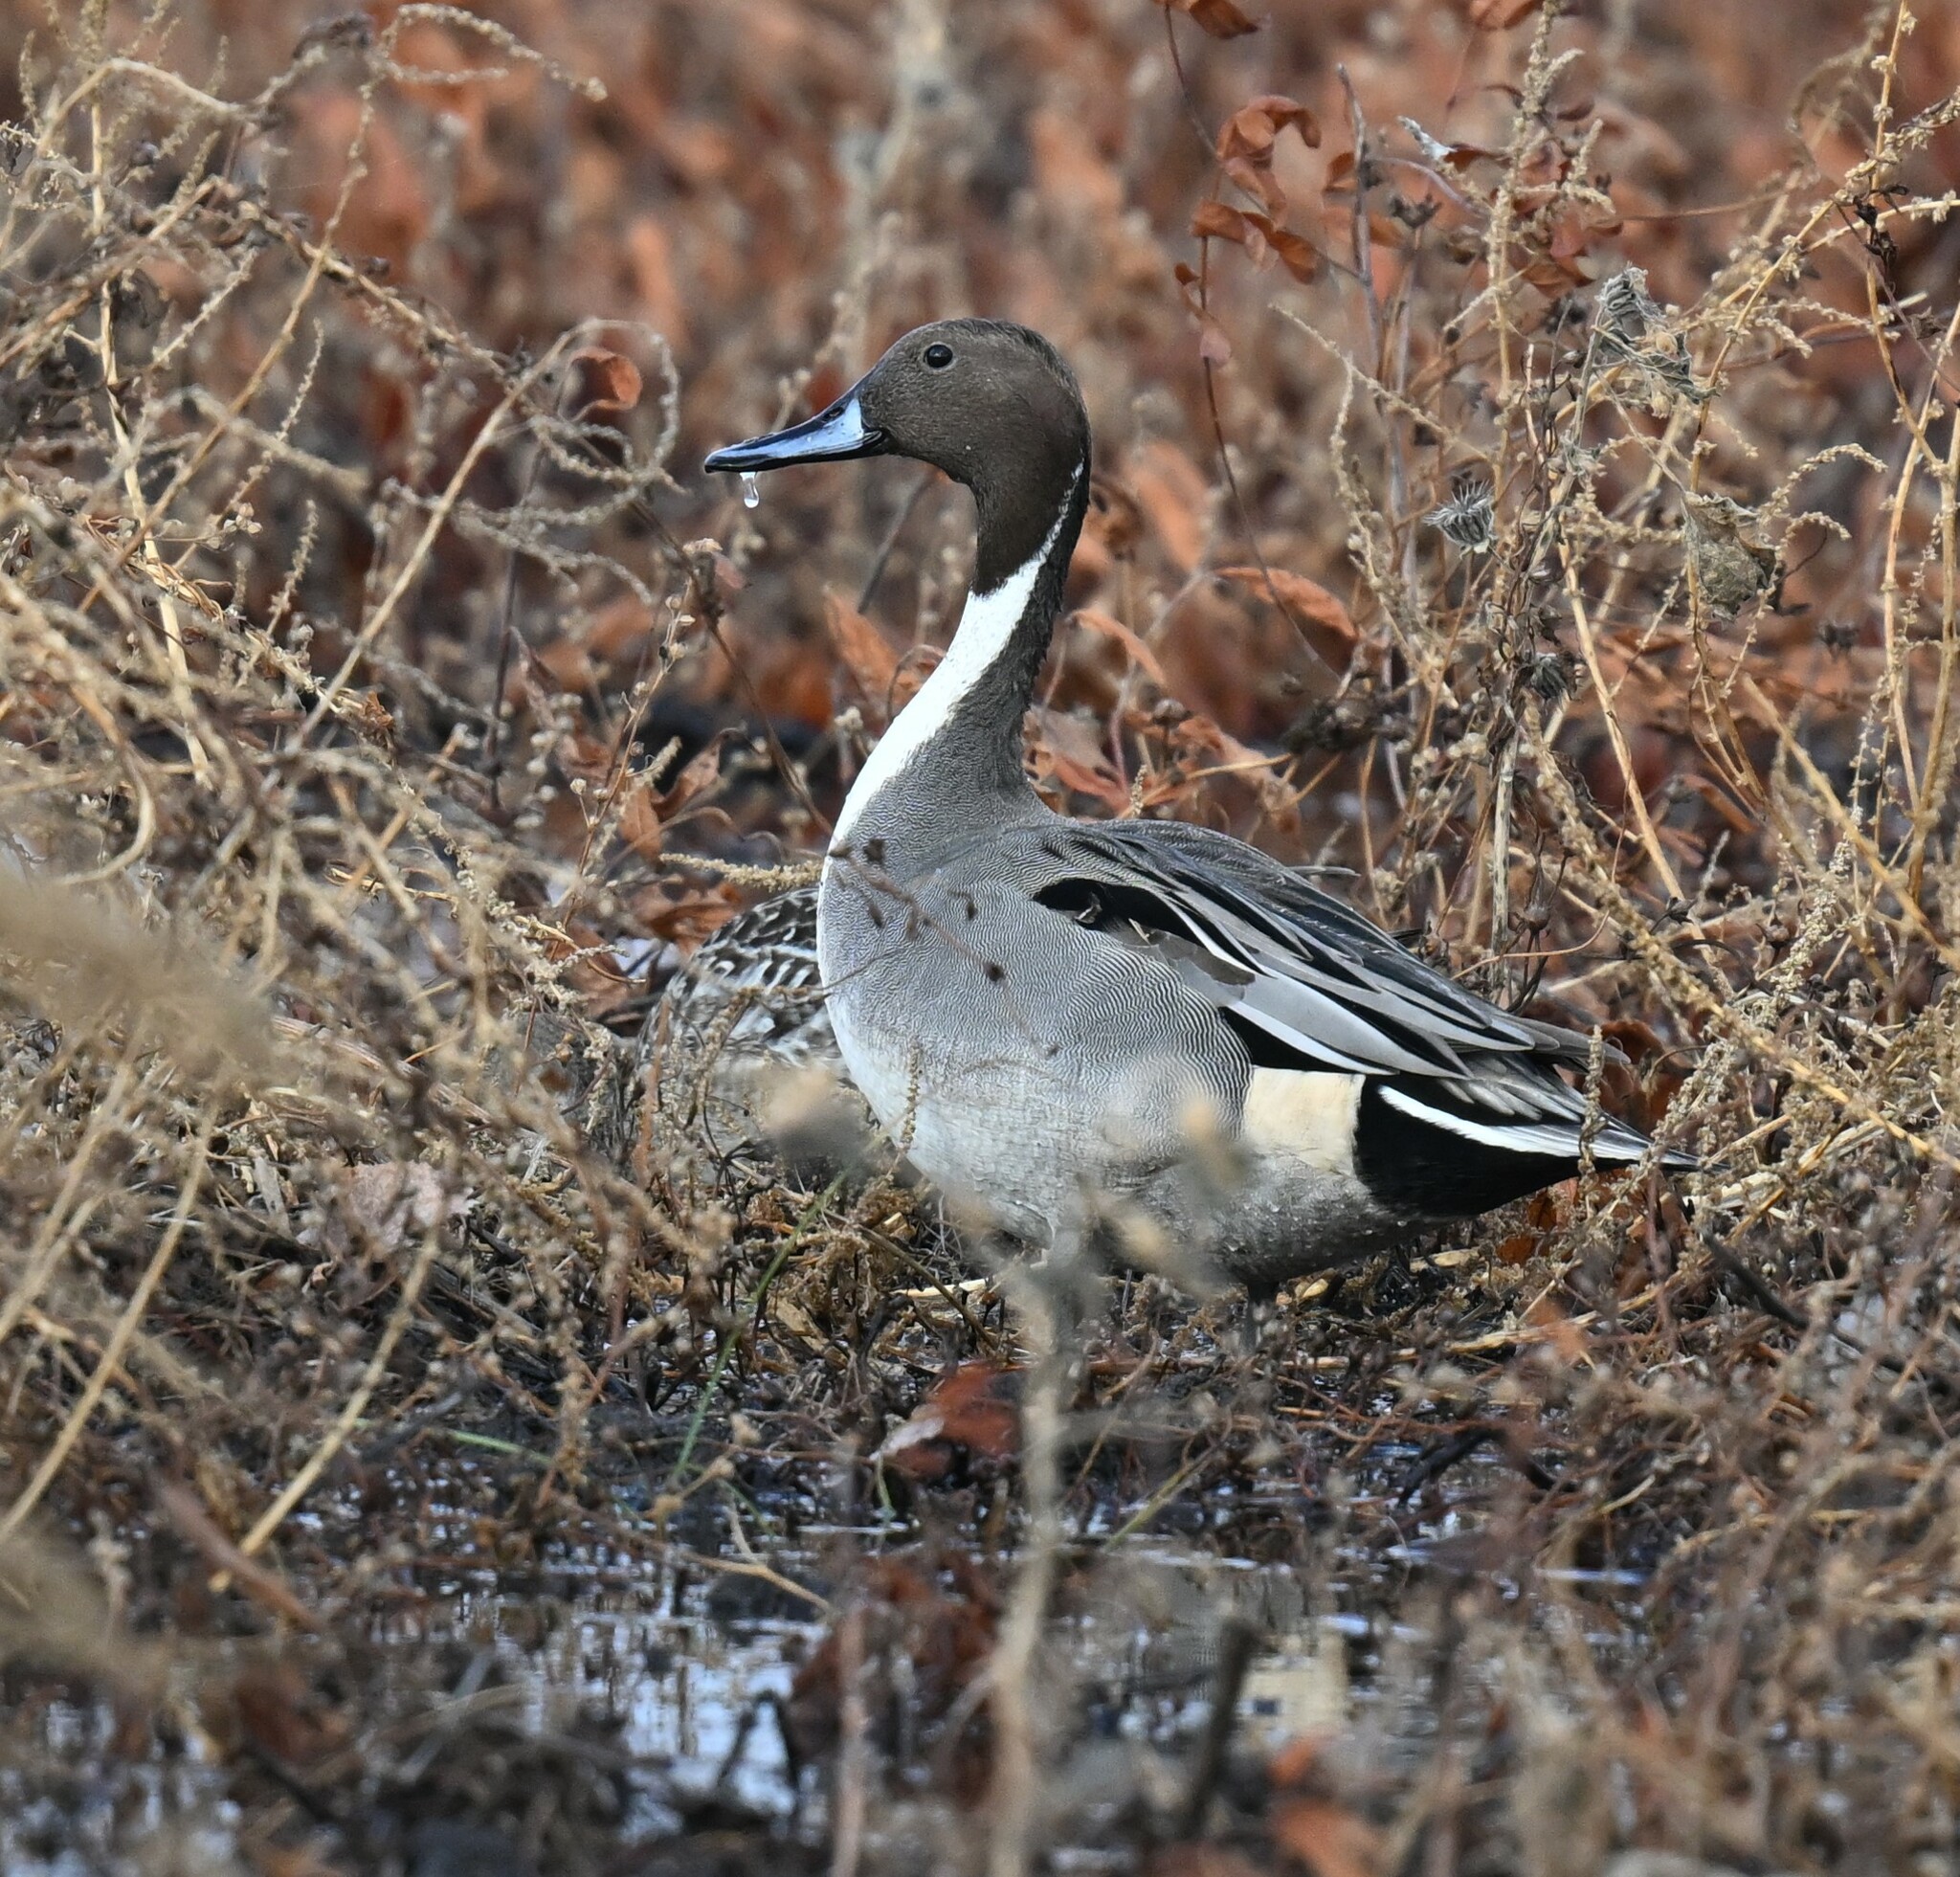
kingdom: Animalia
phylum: Chordata
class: Aves
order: Anseriformes
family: Anatidae
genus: Anas
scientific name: Anas acuta
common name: Northern pintail
